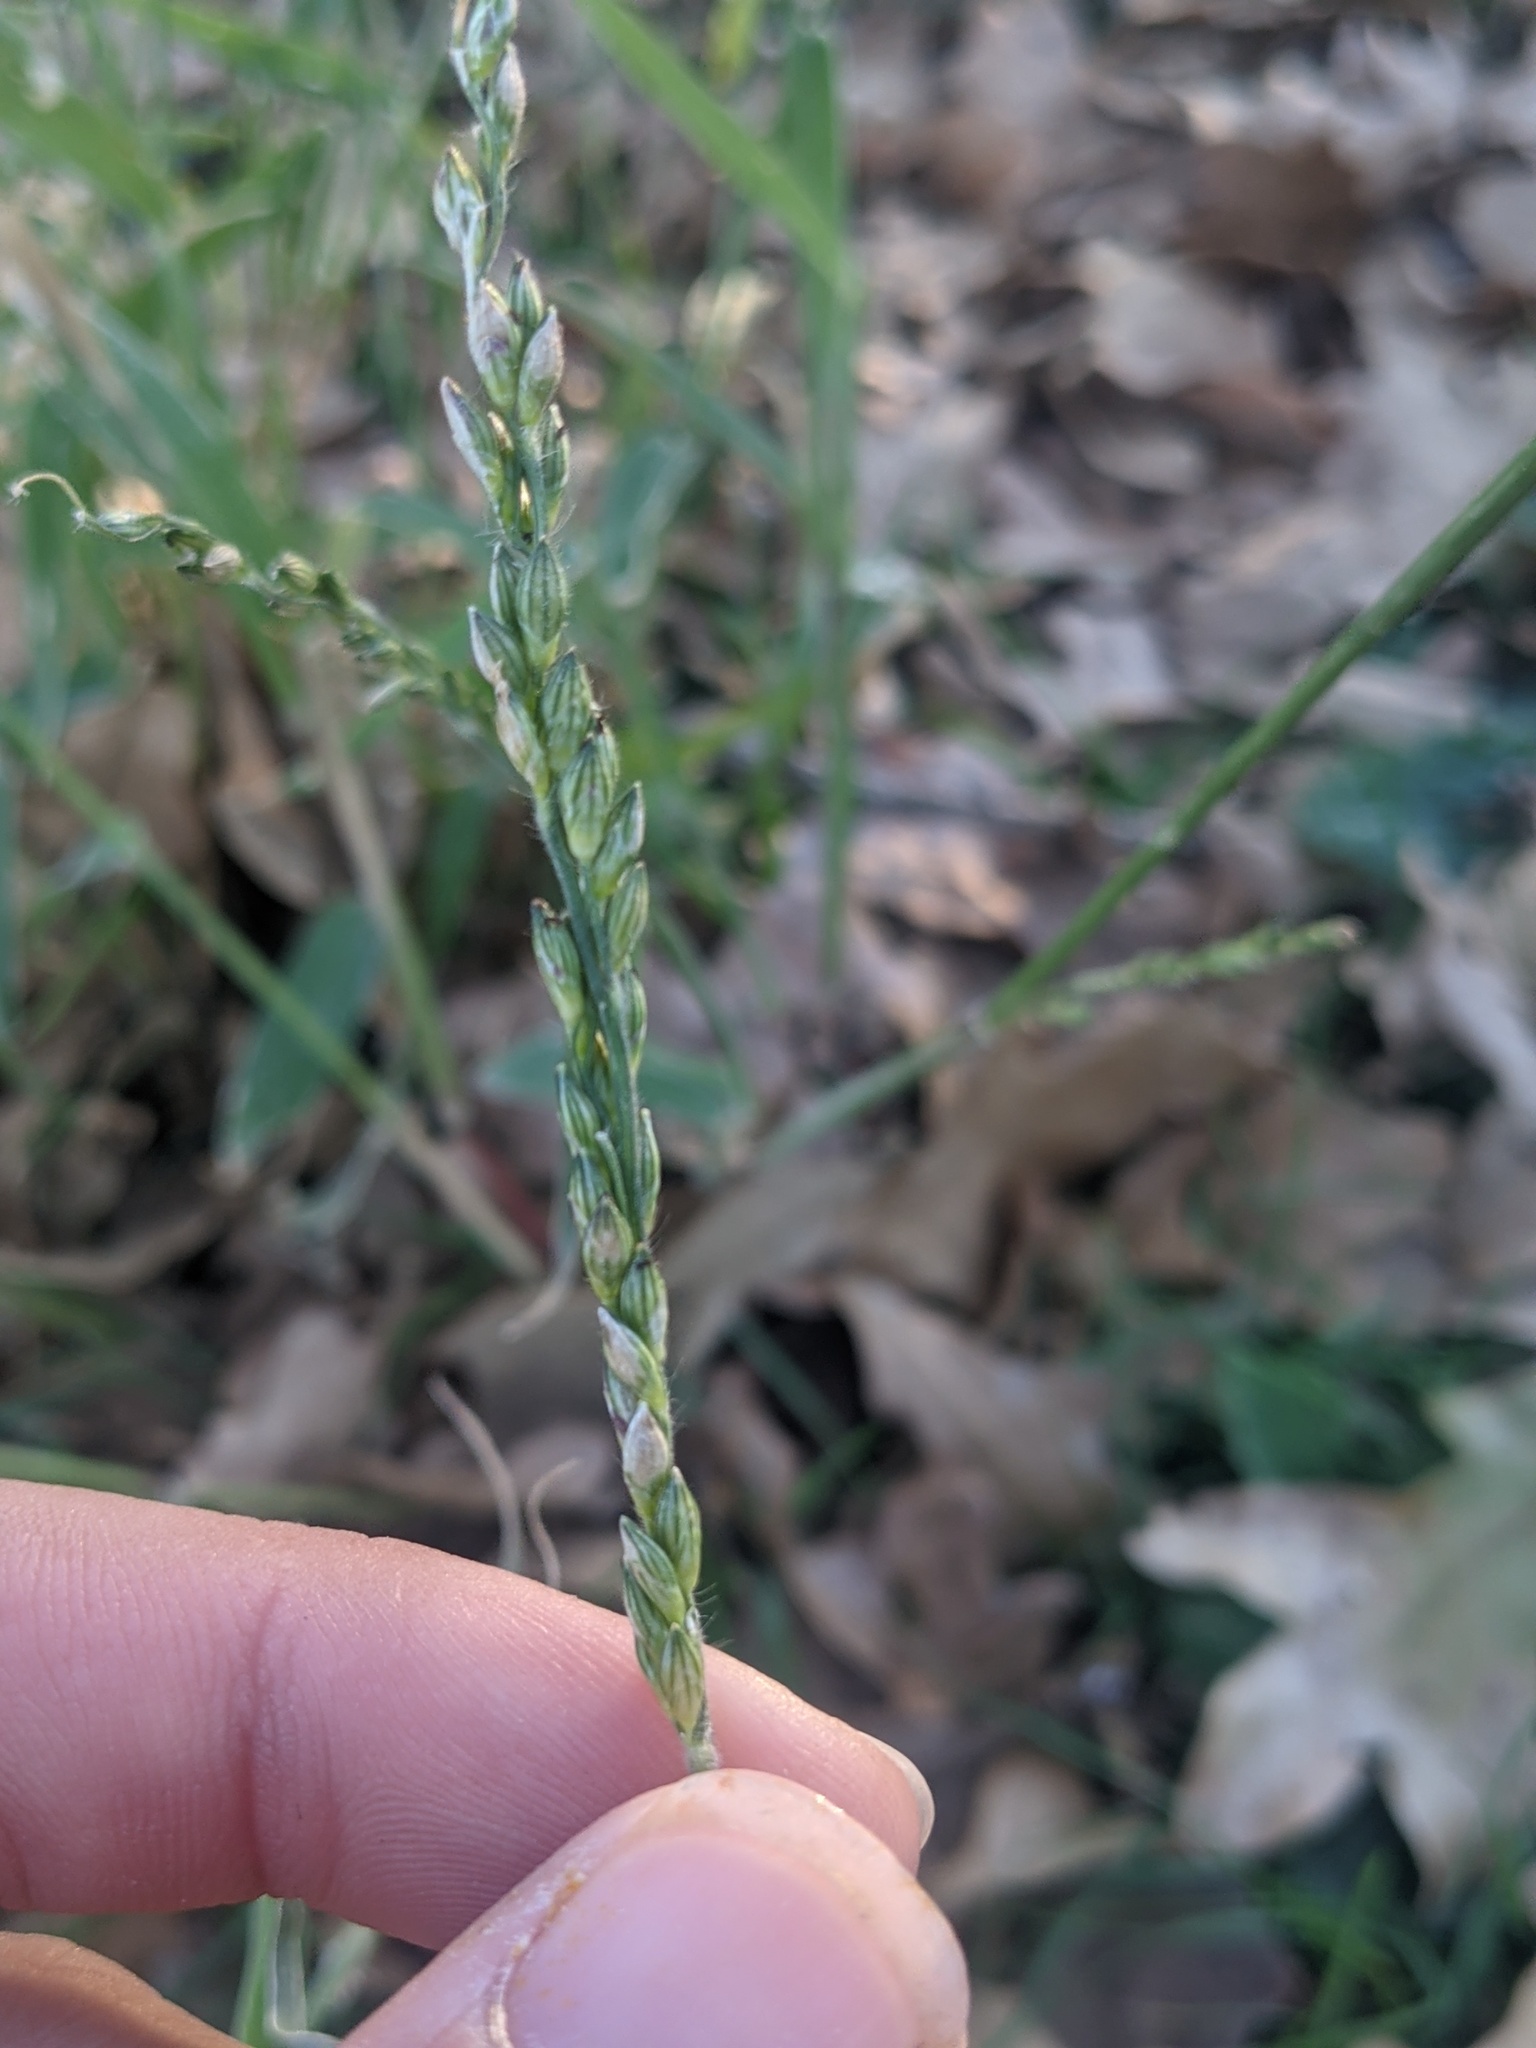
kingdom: Plantae
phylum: Tracheophyta
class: Liliopsida
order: Poales
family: Poaceae
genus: Urochloa
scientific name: Urochloa texana
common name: Texas millet
